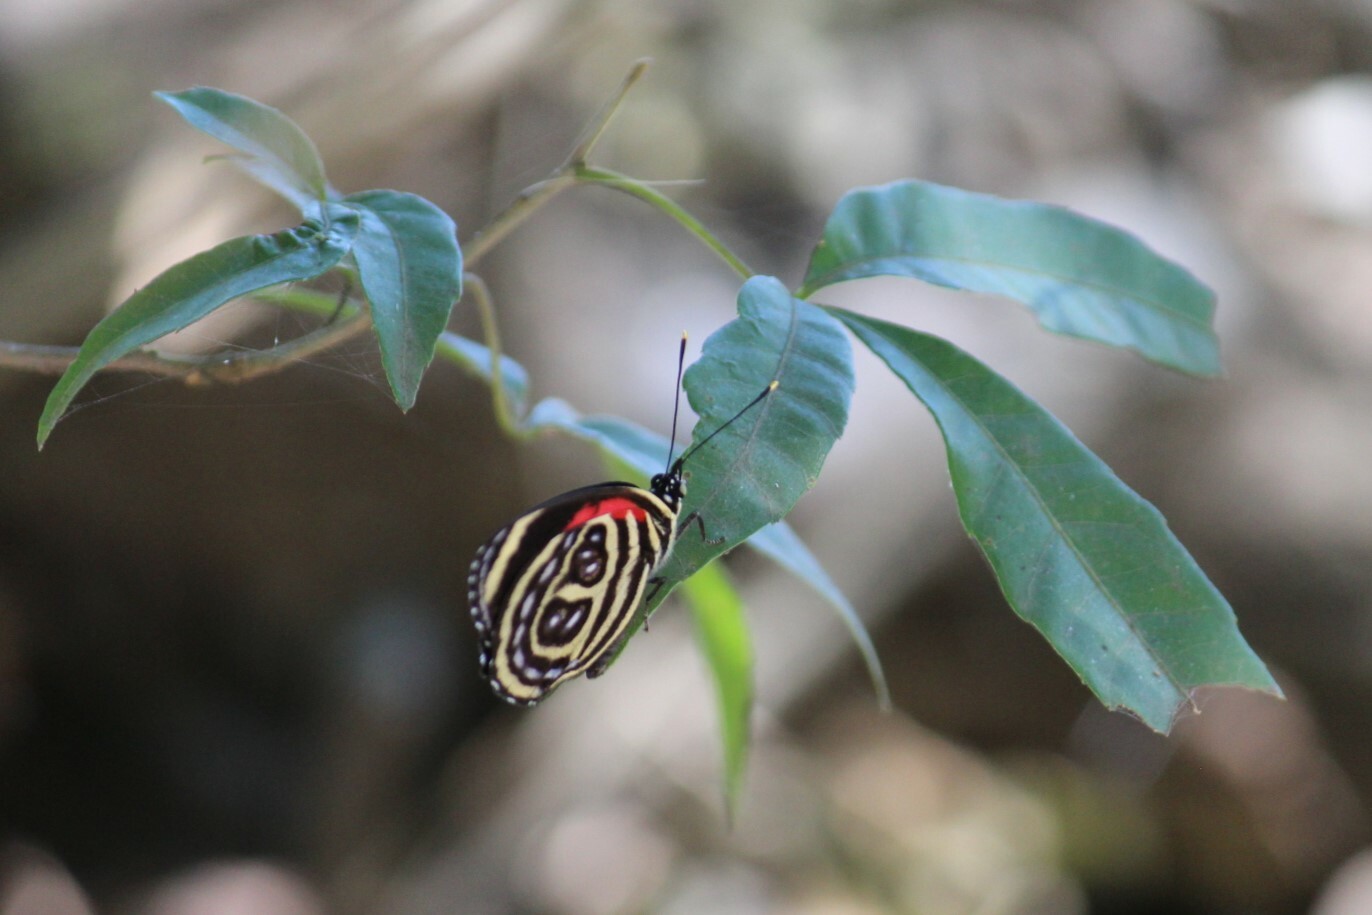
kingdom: Animalia
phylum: Arthropoda
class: Insecta
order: Lepidoptera
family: Nymphalidae
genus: Catagramma
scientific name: Catagramma pygas
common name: Godart's numberwing
